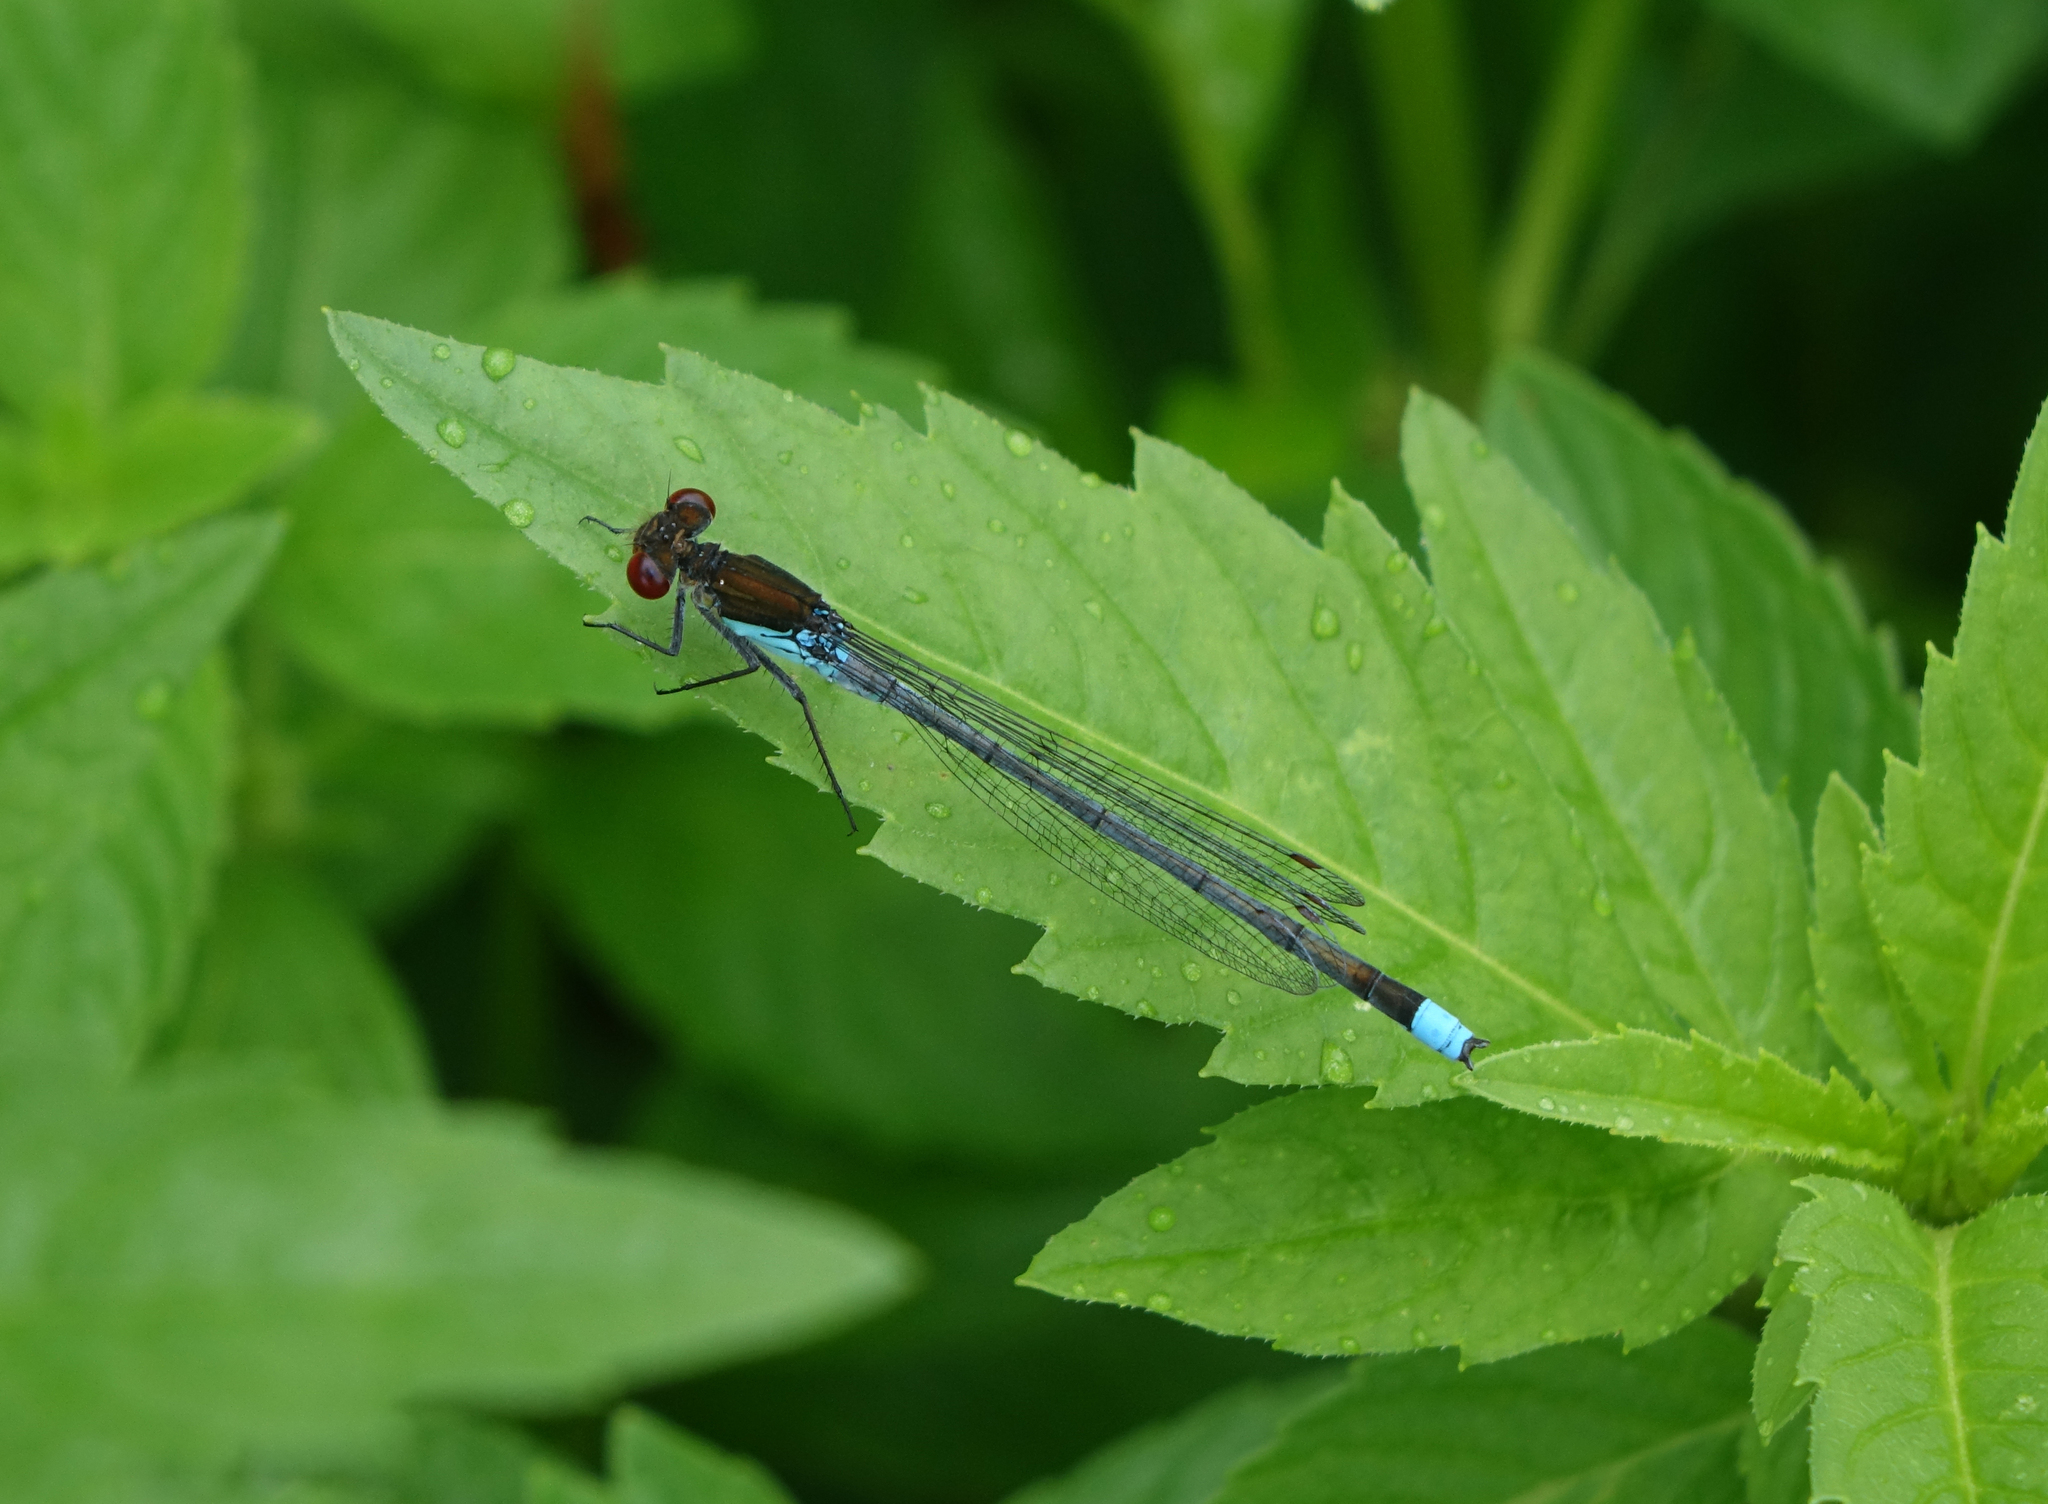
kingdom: Animalia
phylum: Arthropoda
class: Insecta
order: Odonata
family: Coenagrionidae
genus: Erythromma
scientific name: Erythromma najas
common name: Red-eyed damselfly
